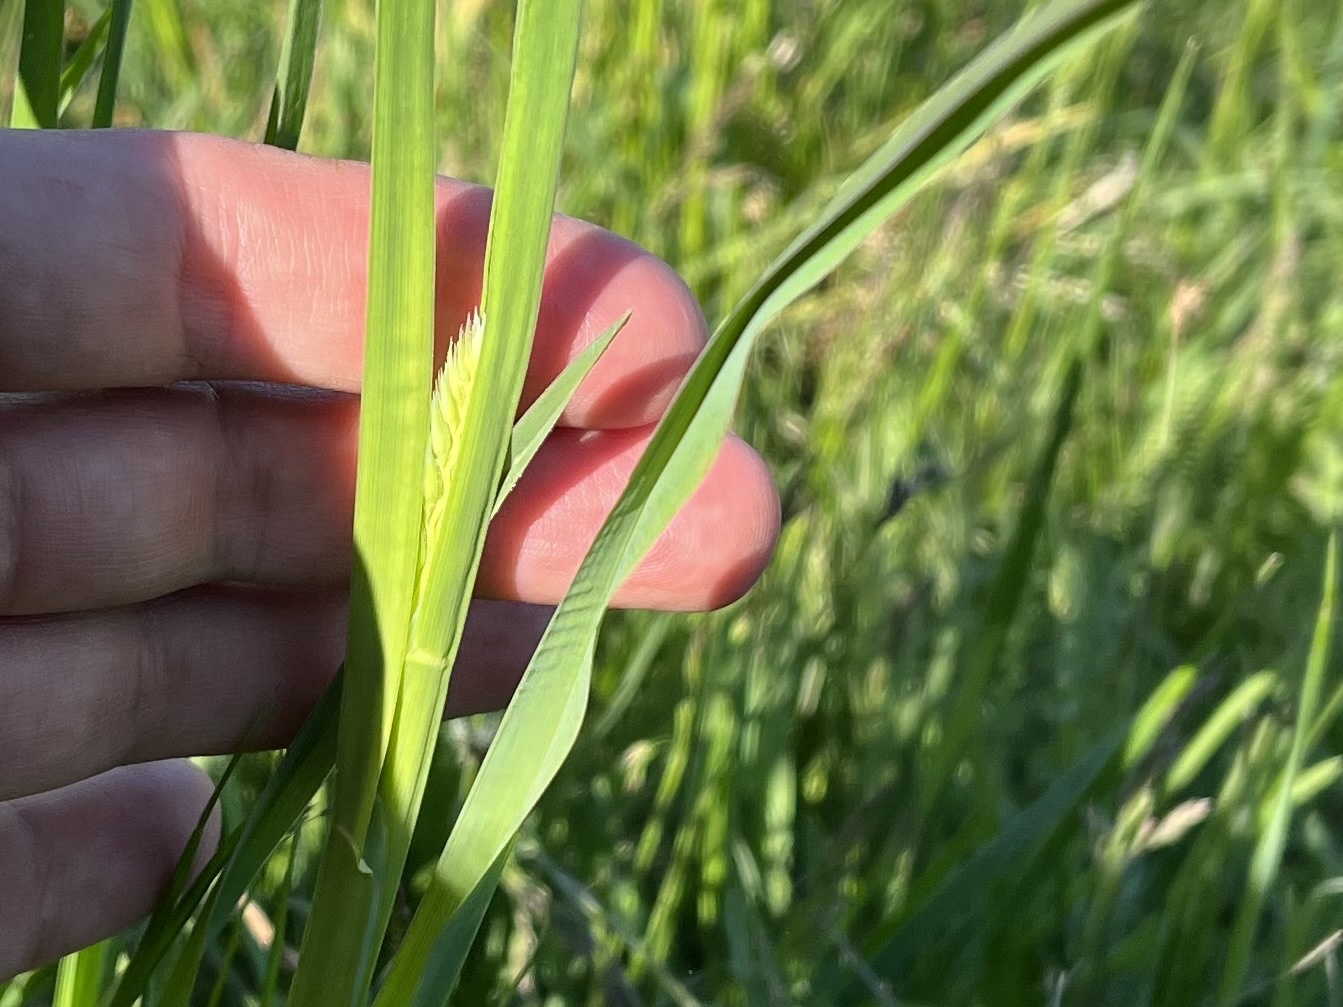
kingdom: Plantae
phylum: Tracheophyta
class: Liliopsida
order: Poales
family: Poaceae
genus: Dactylis
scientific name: Dactylis glomerata
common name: Orchardgrass
